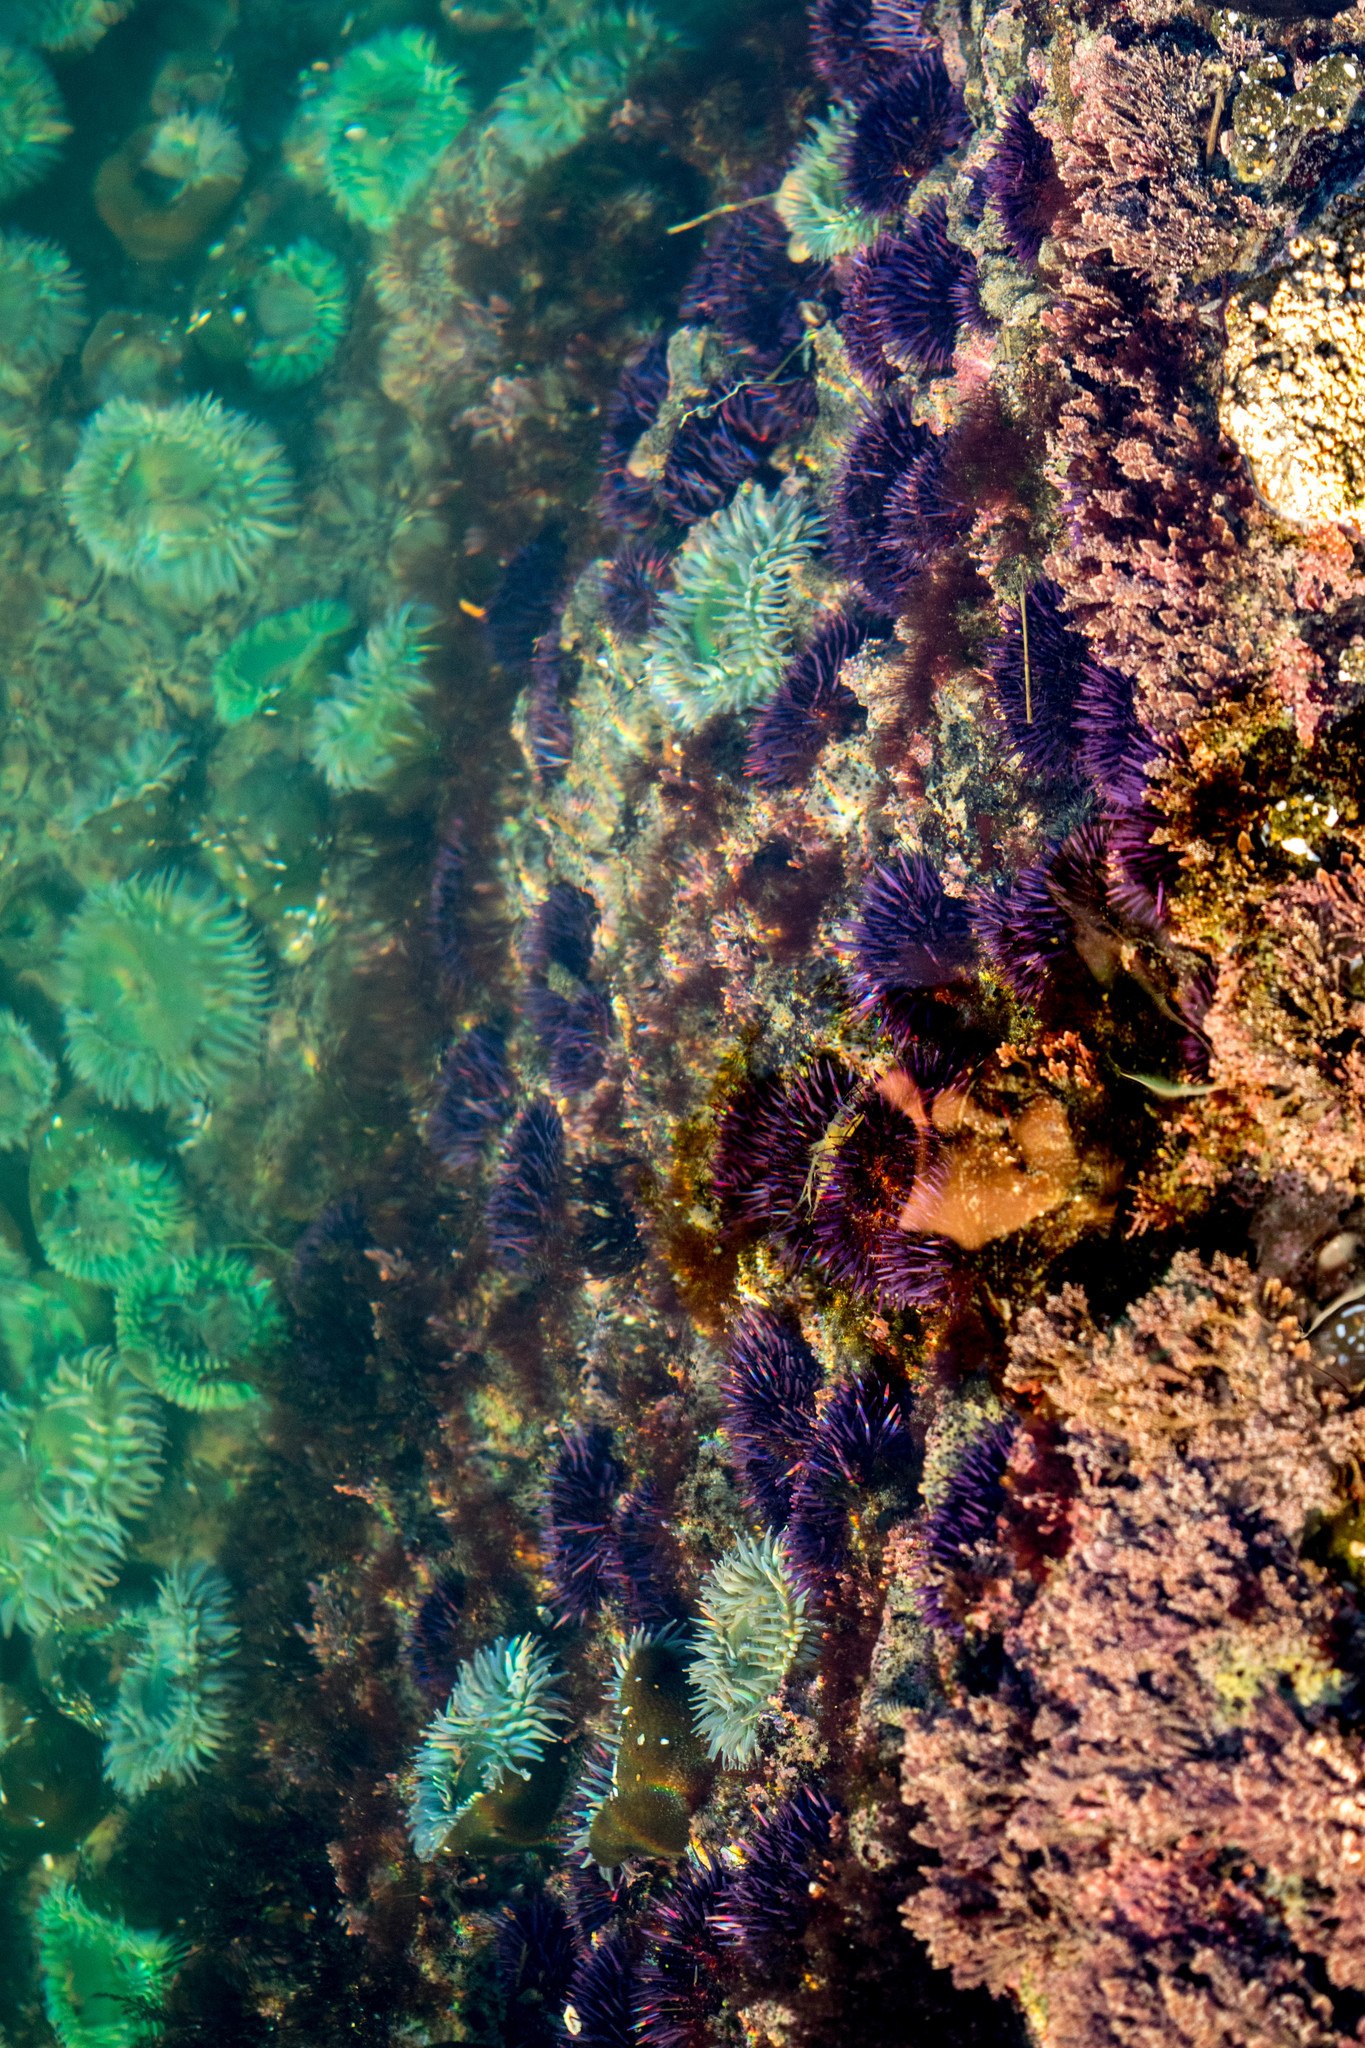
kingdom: Animalia
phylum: Echinodermata
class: Echinoidea
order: Camarodonta
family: Strongylocentrotidae
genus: Strongylocentrotus
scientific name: Strongylocentrotus purpuratus
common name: Purple sea urchin
